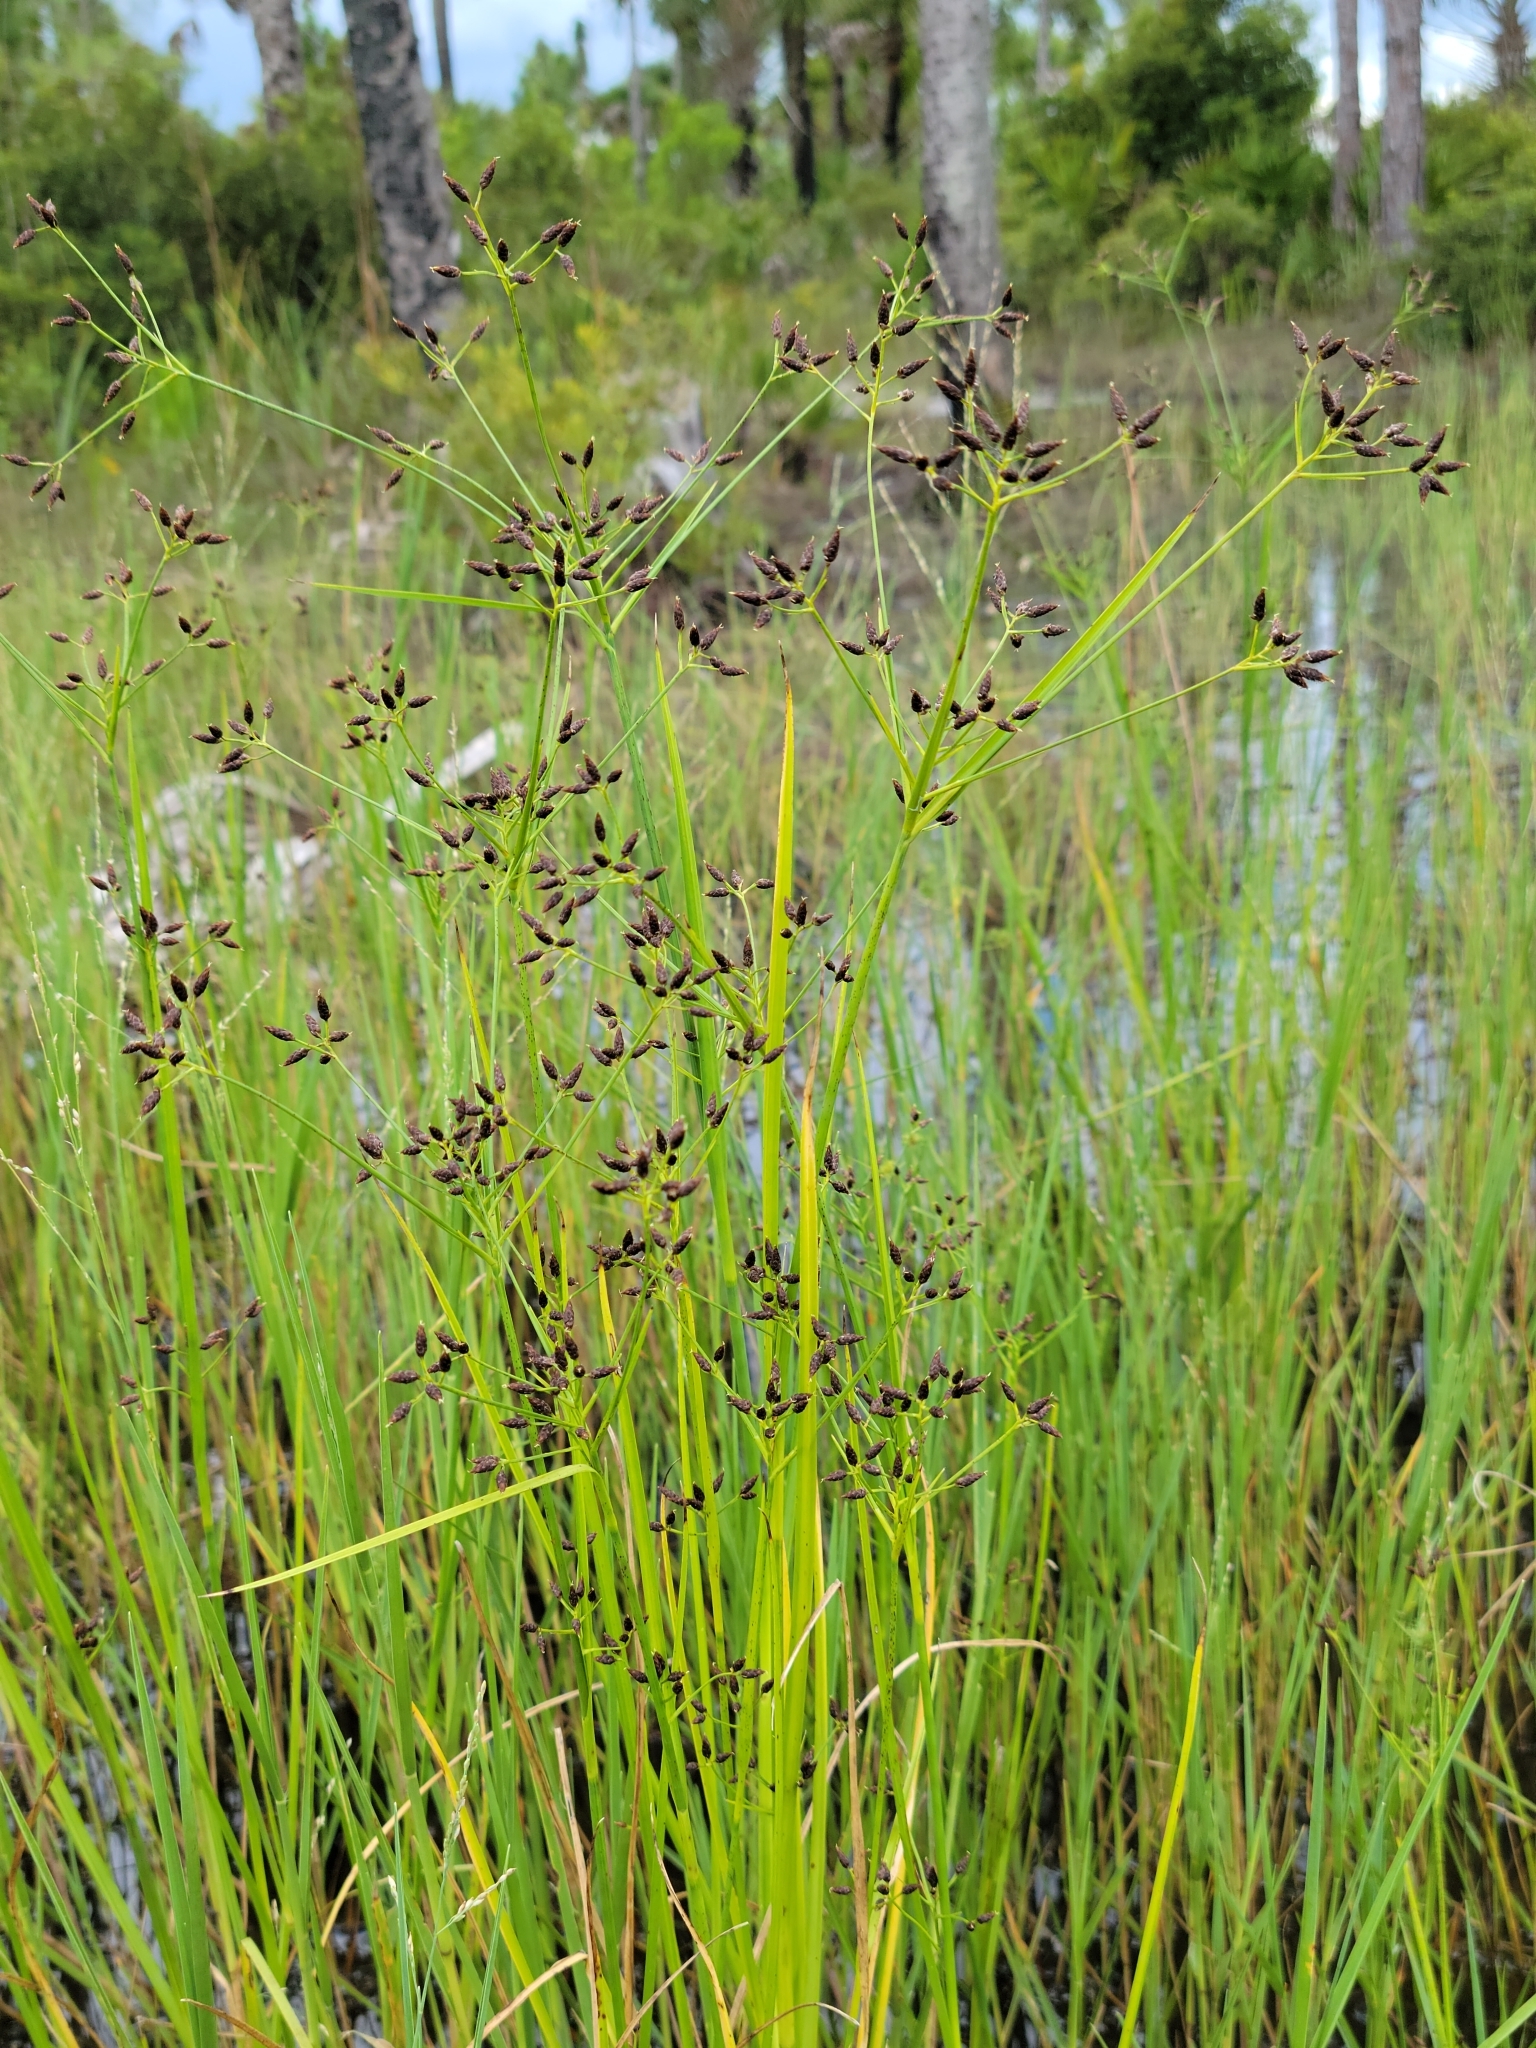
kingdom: Plantae
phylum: Tracheophyta
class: Liliopsida
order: Poales
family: Cyperaceae
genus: Rhynchospora
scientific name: Rhynchospora nitens
